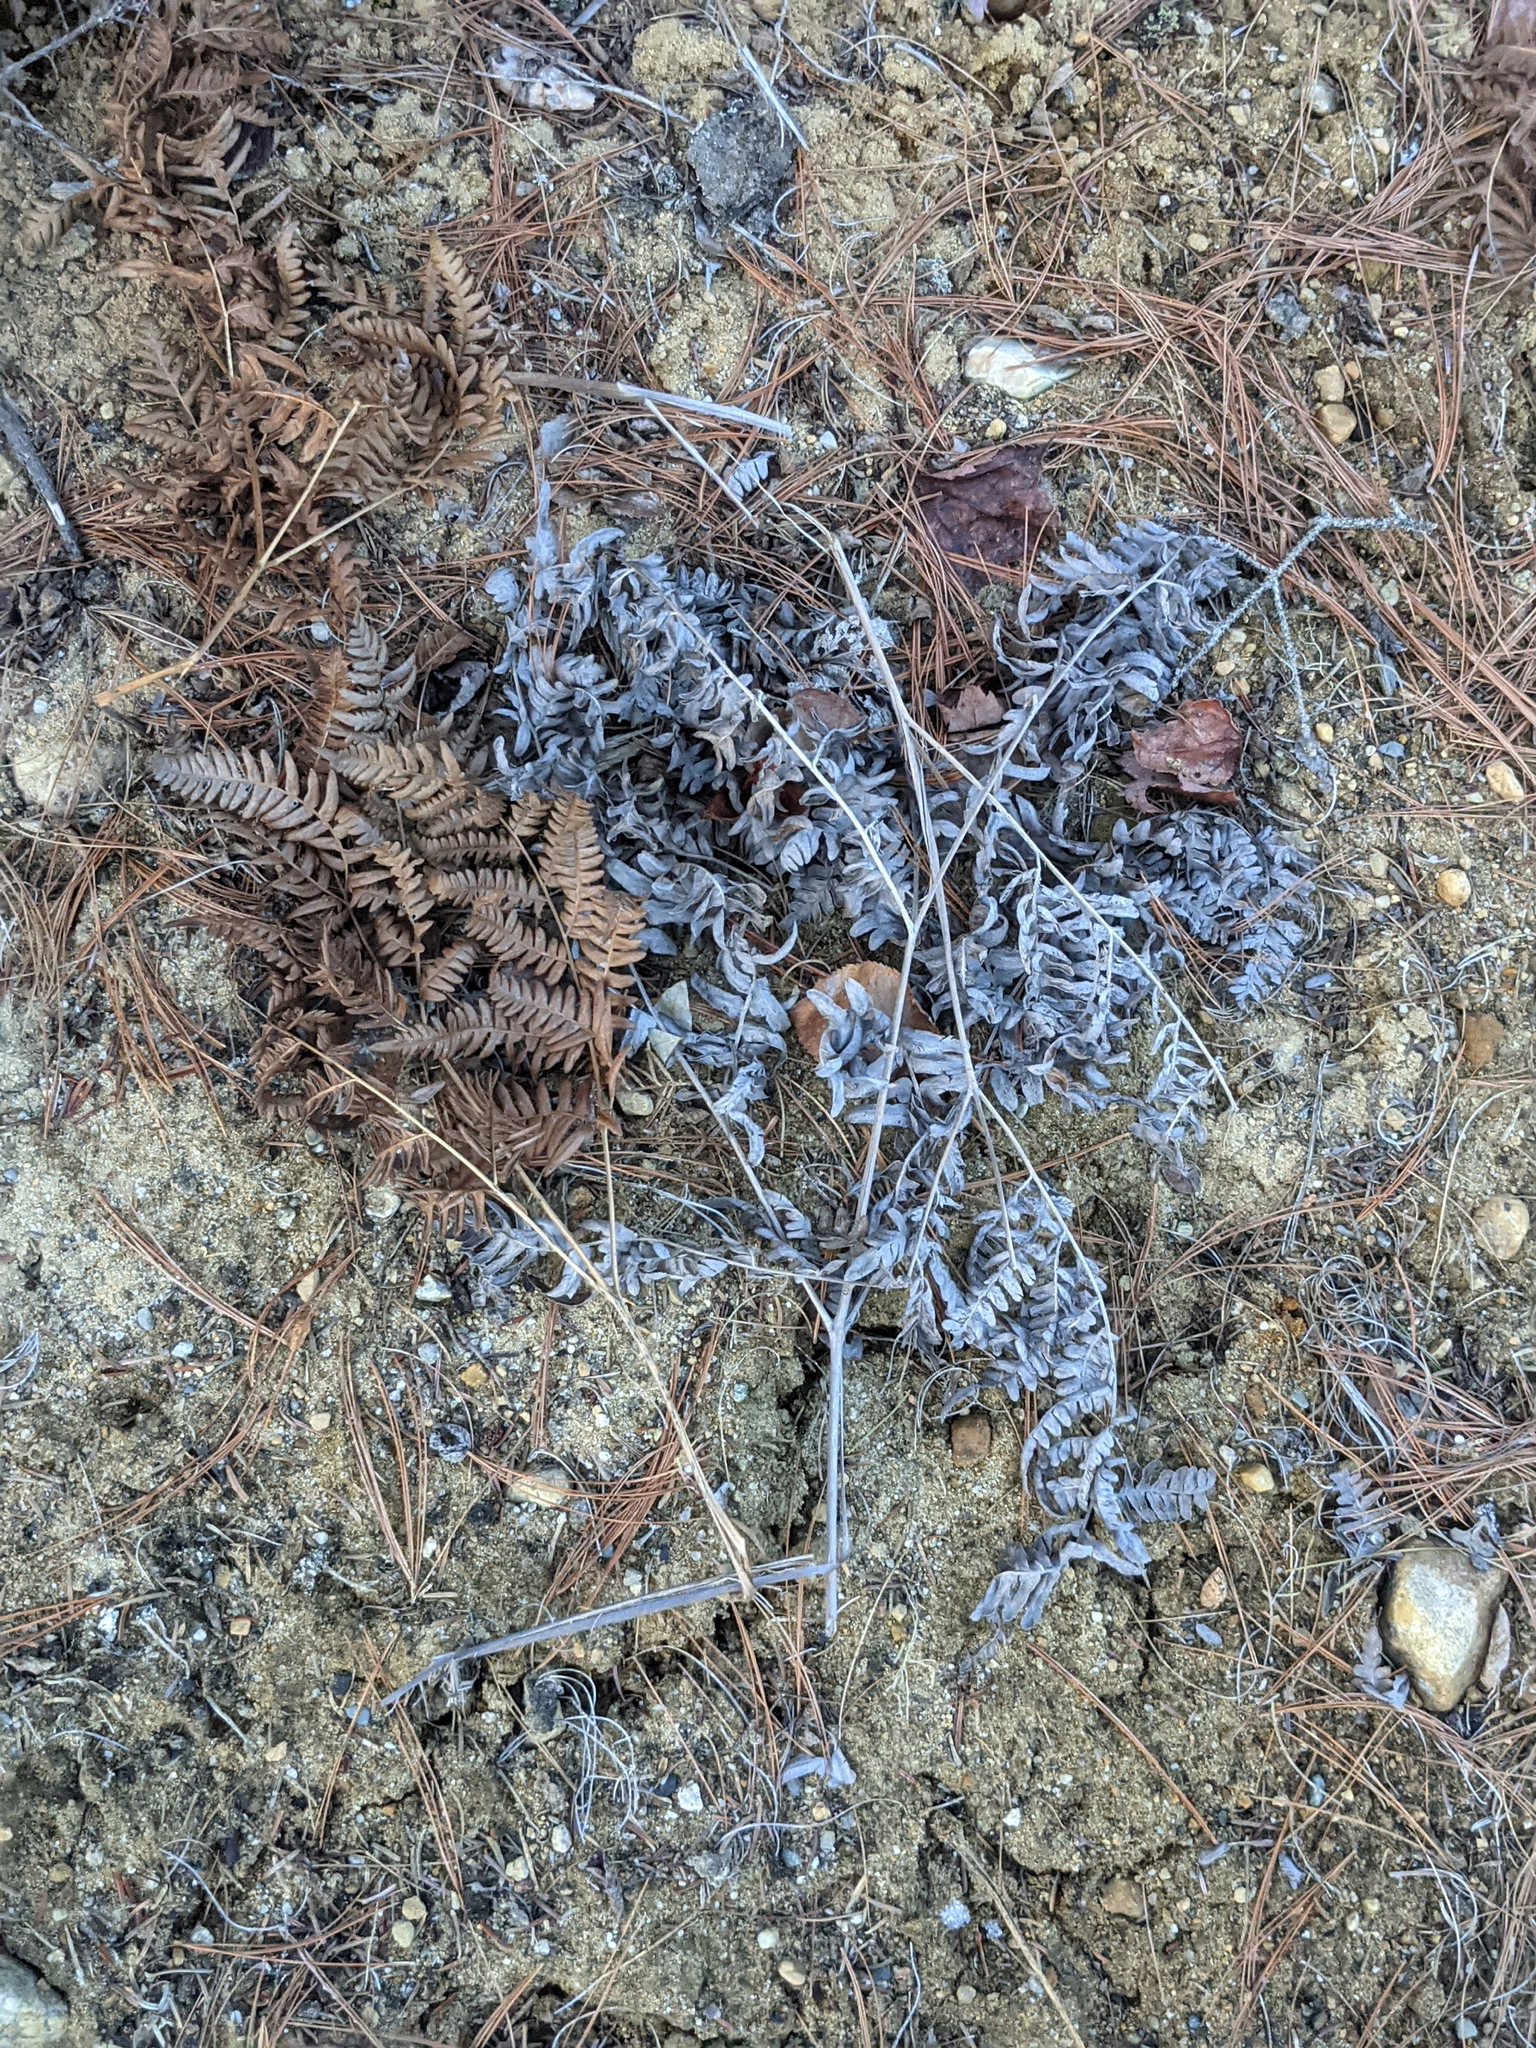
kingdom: Plantae
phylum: Tracheophyta
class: Polypodiopsida
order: Polypodiales
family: Dennstaedtiaceae
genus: Pteridium
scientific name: Pteridium aquilinum
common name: Bracken
